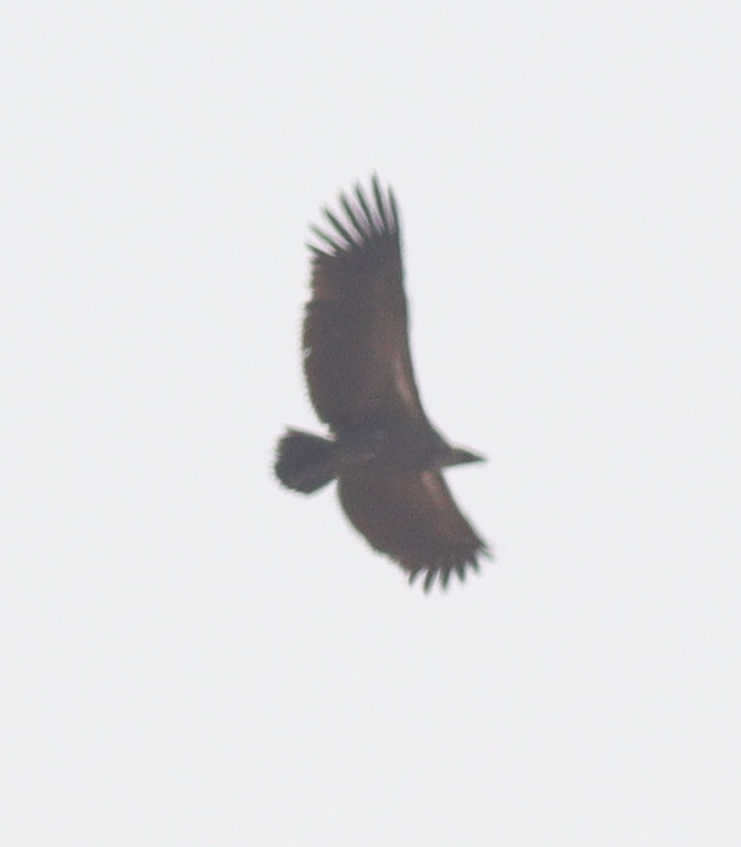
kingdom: Animalia
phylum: Chordata
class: Aves
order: Accipitriformes
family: Accipitridae
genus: Gyps
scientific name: Gyps africanus
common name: White-backed vulture
